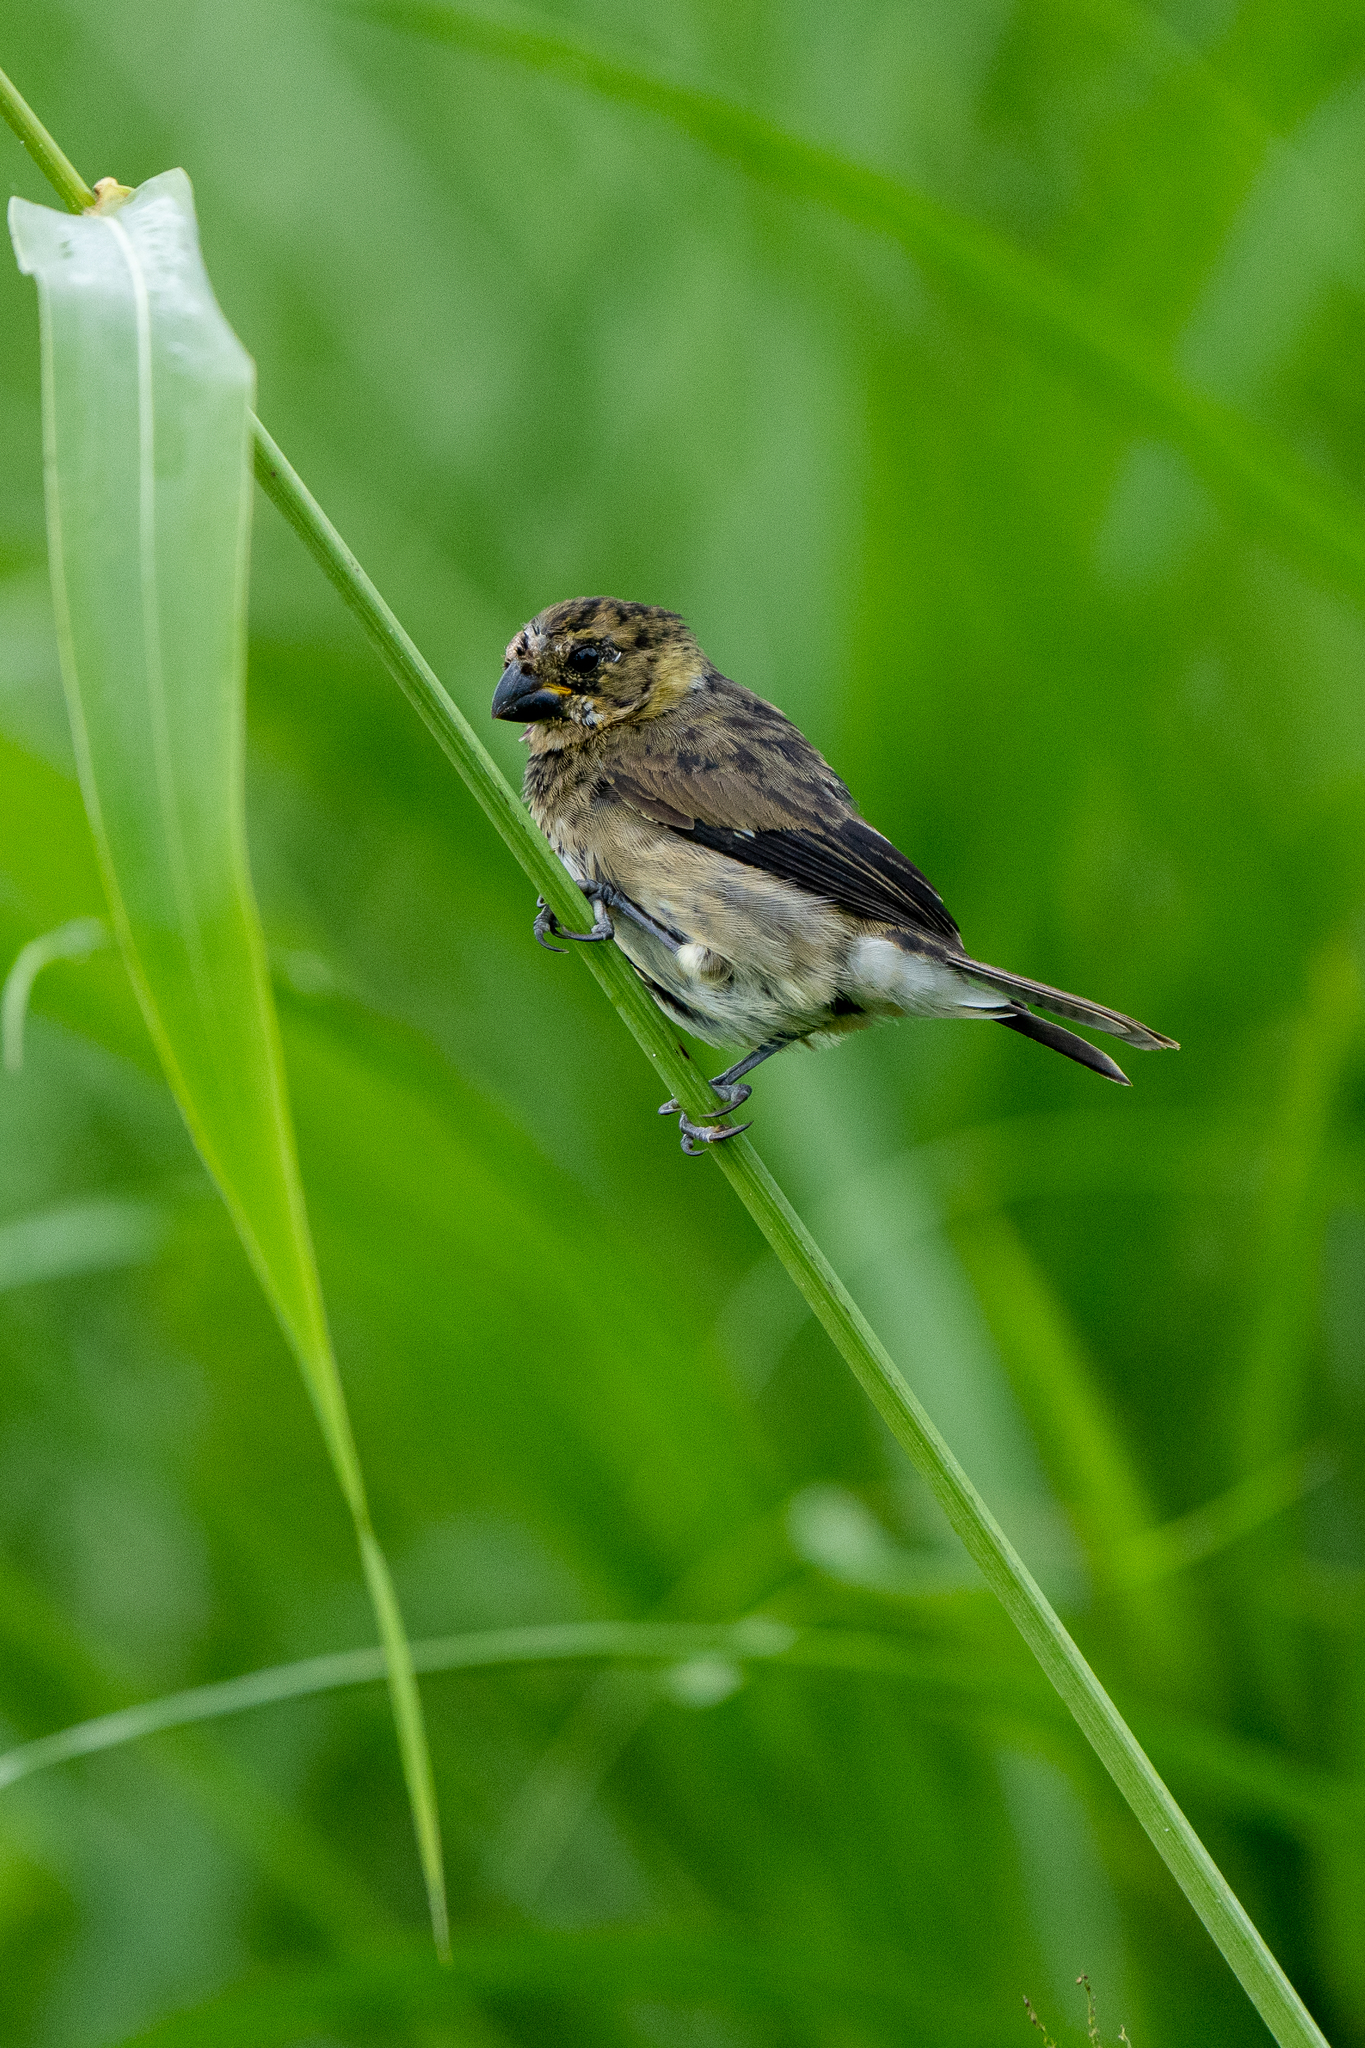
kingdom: Animalia
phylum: Chordata
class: Aves
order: Passeriformes
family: Thraupidae
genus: Sporophila
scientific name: Sporophila corvina
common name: Variable seedeater
